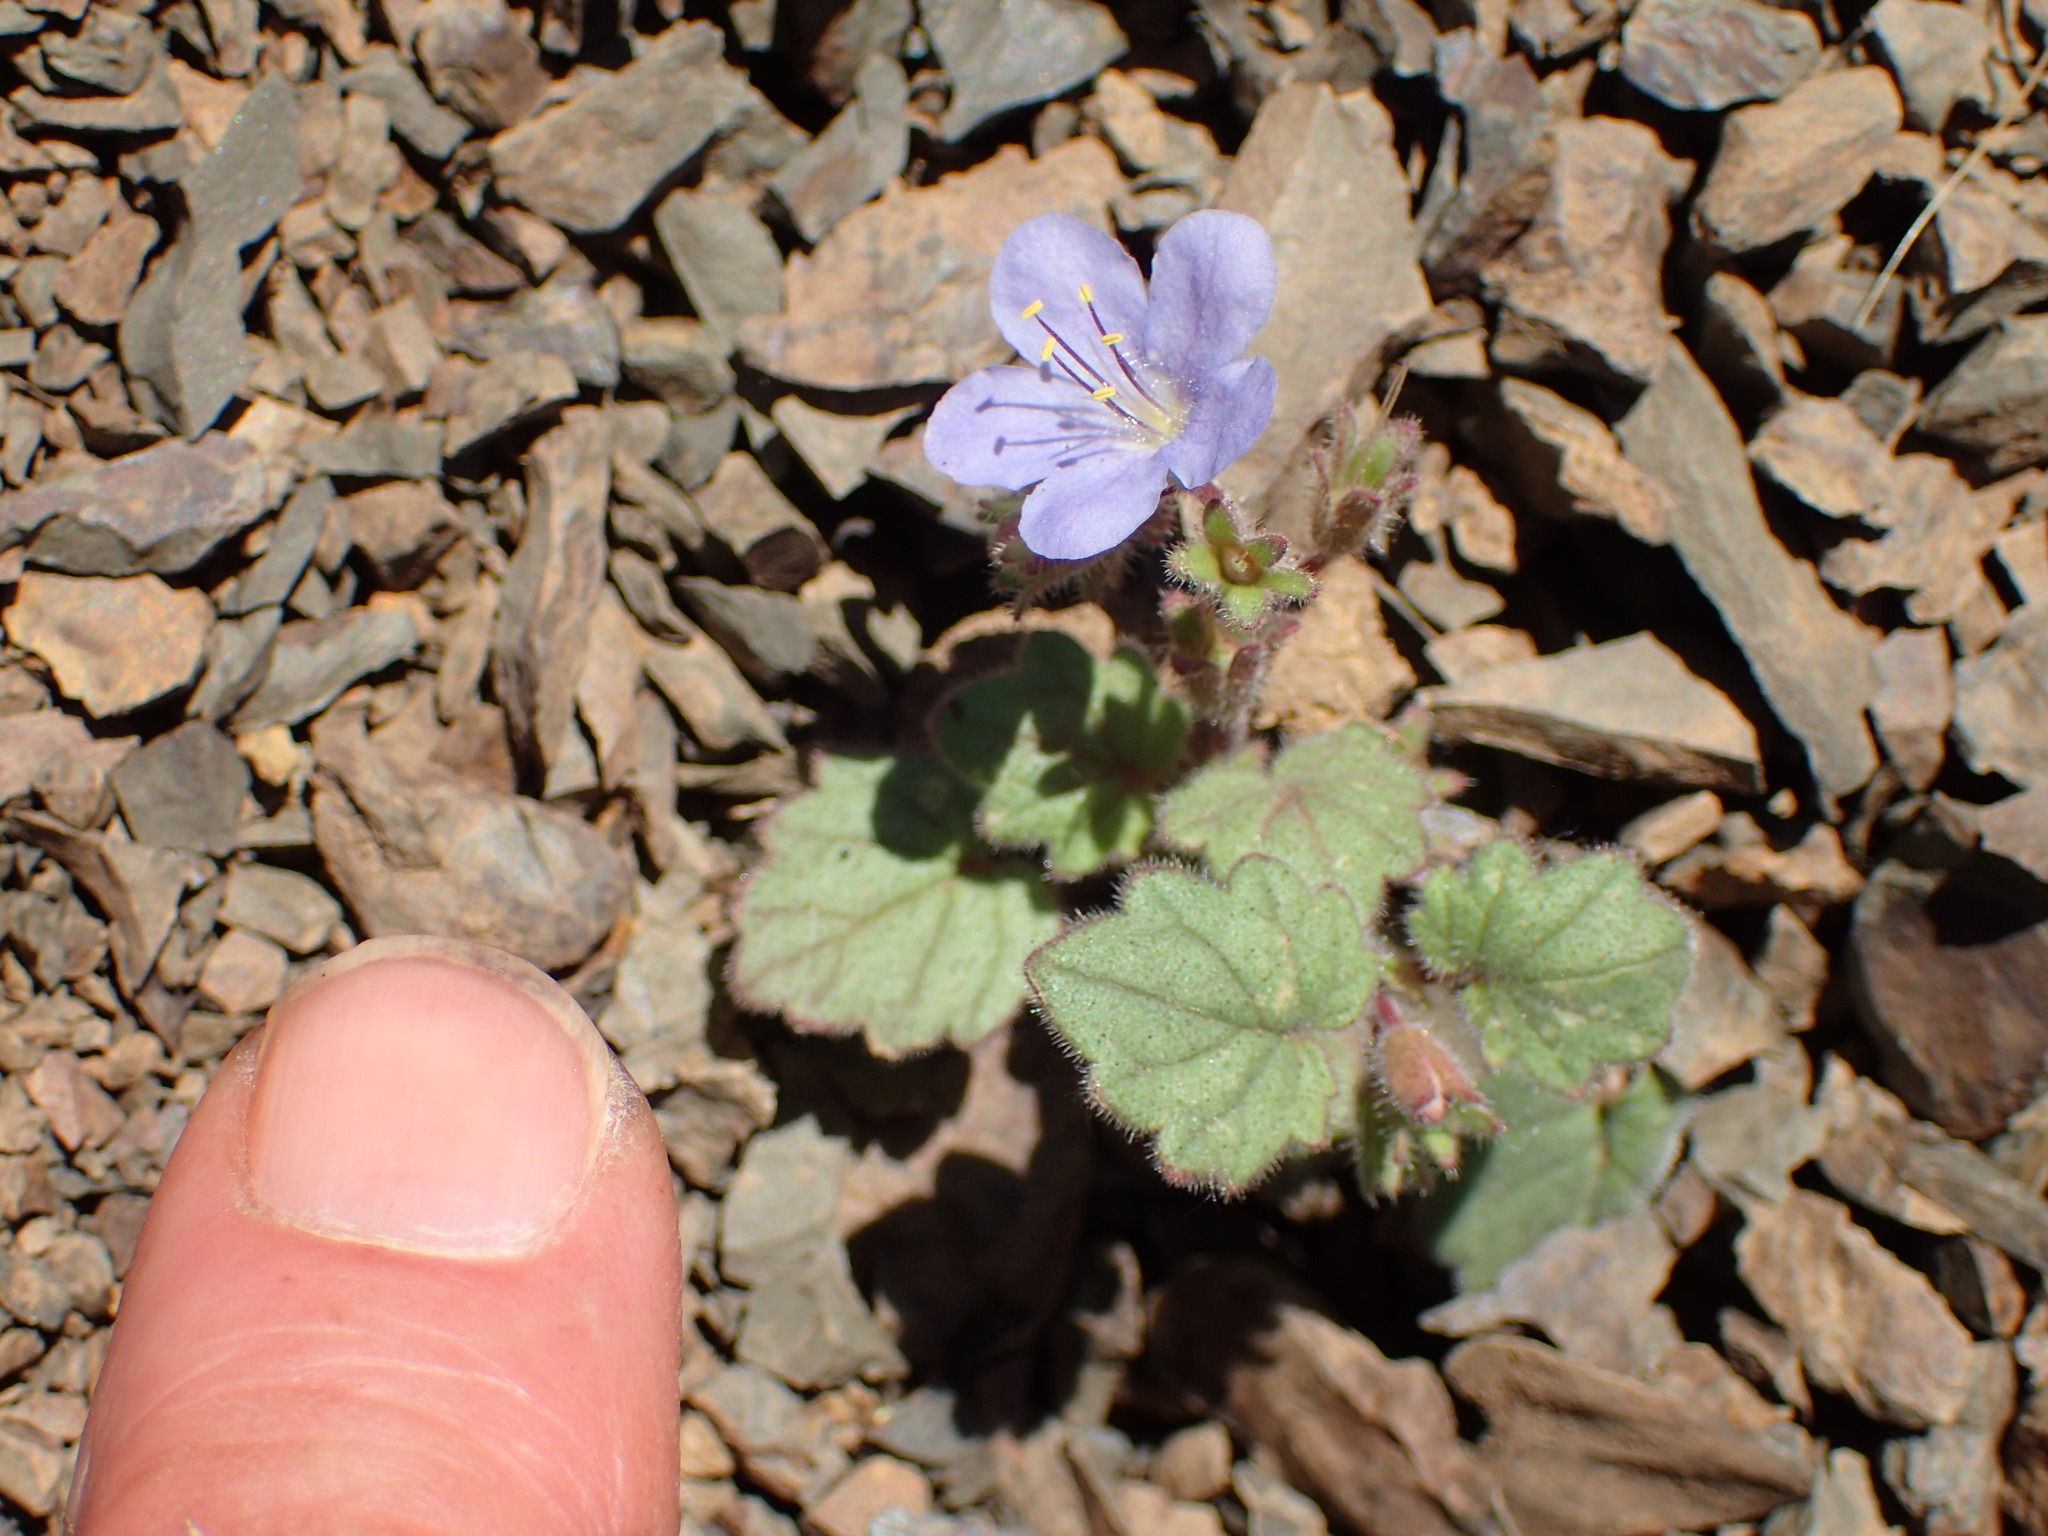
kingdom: Plantae
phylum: Tracheophyta
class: Magnoliopsida
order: Boraginales
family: Hydrophyllaceae
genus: Phacelia
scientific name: Phacelia longipes
